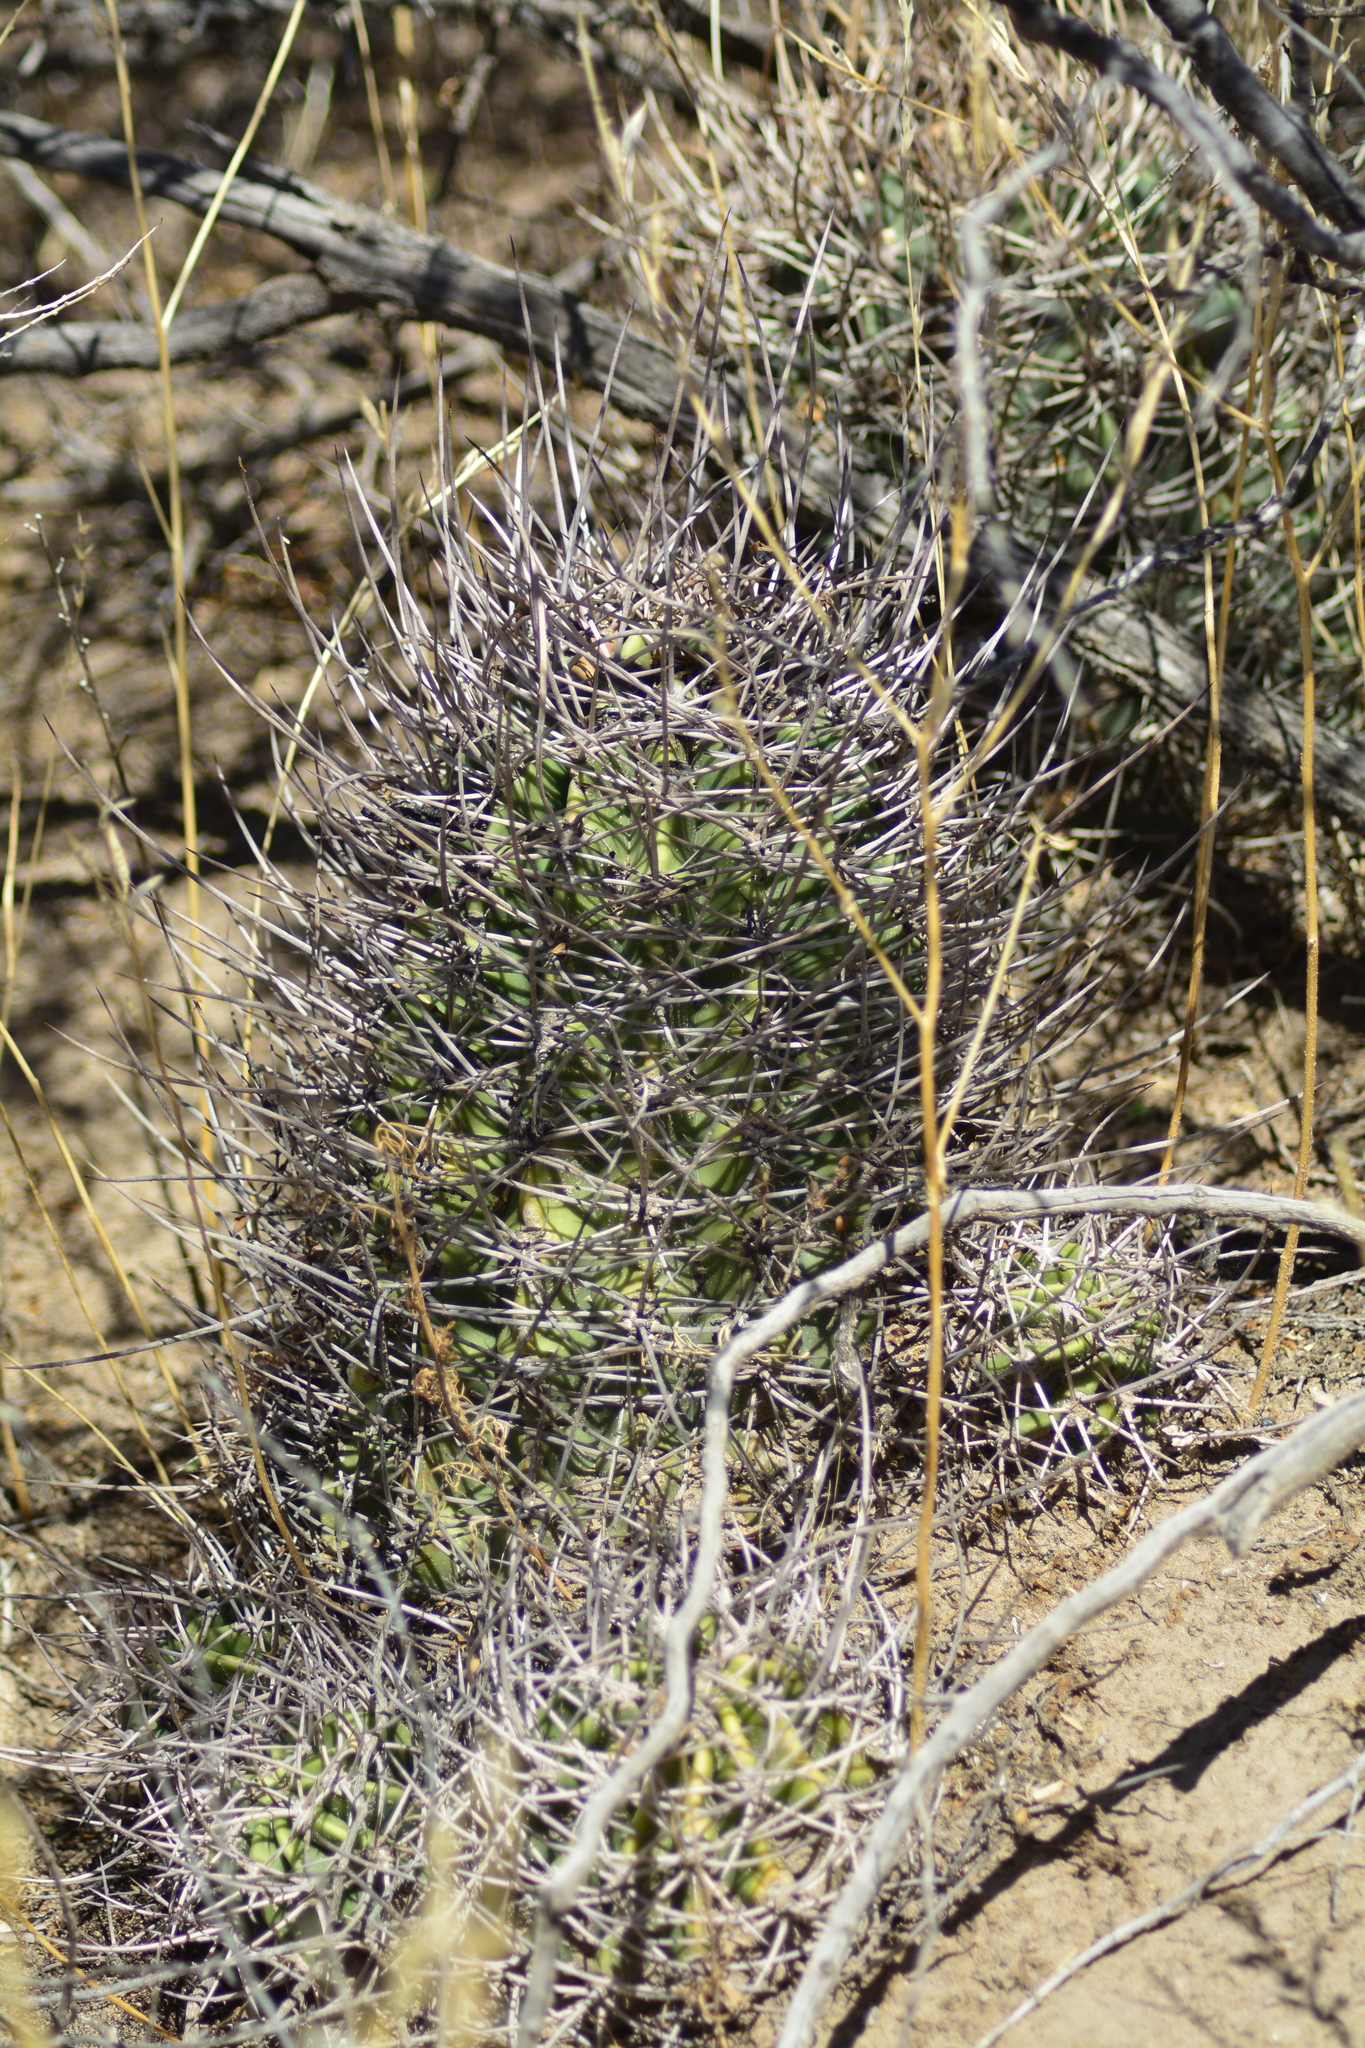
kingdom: Plantae
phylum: Tracheophyta
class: Magnoliopsida
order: Caryophyllales
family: Cactaceae
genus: Acanthocalycium
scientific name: Acanthocalycium leucanthum
